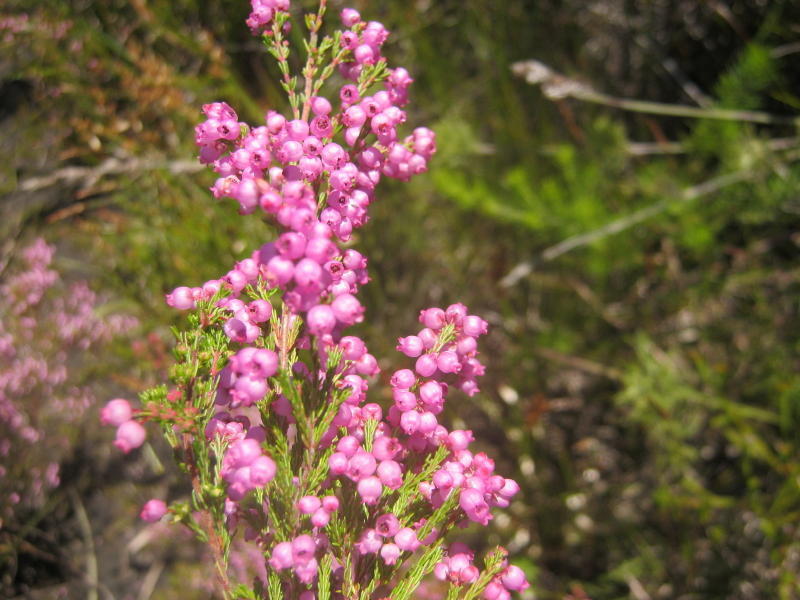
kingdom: Plantae
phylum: Tracheophyta
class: Magnoliopsida
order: Ericales
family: Ericaceae
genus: Erica
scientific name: Erica gracilis
